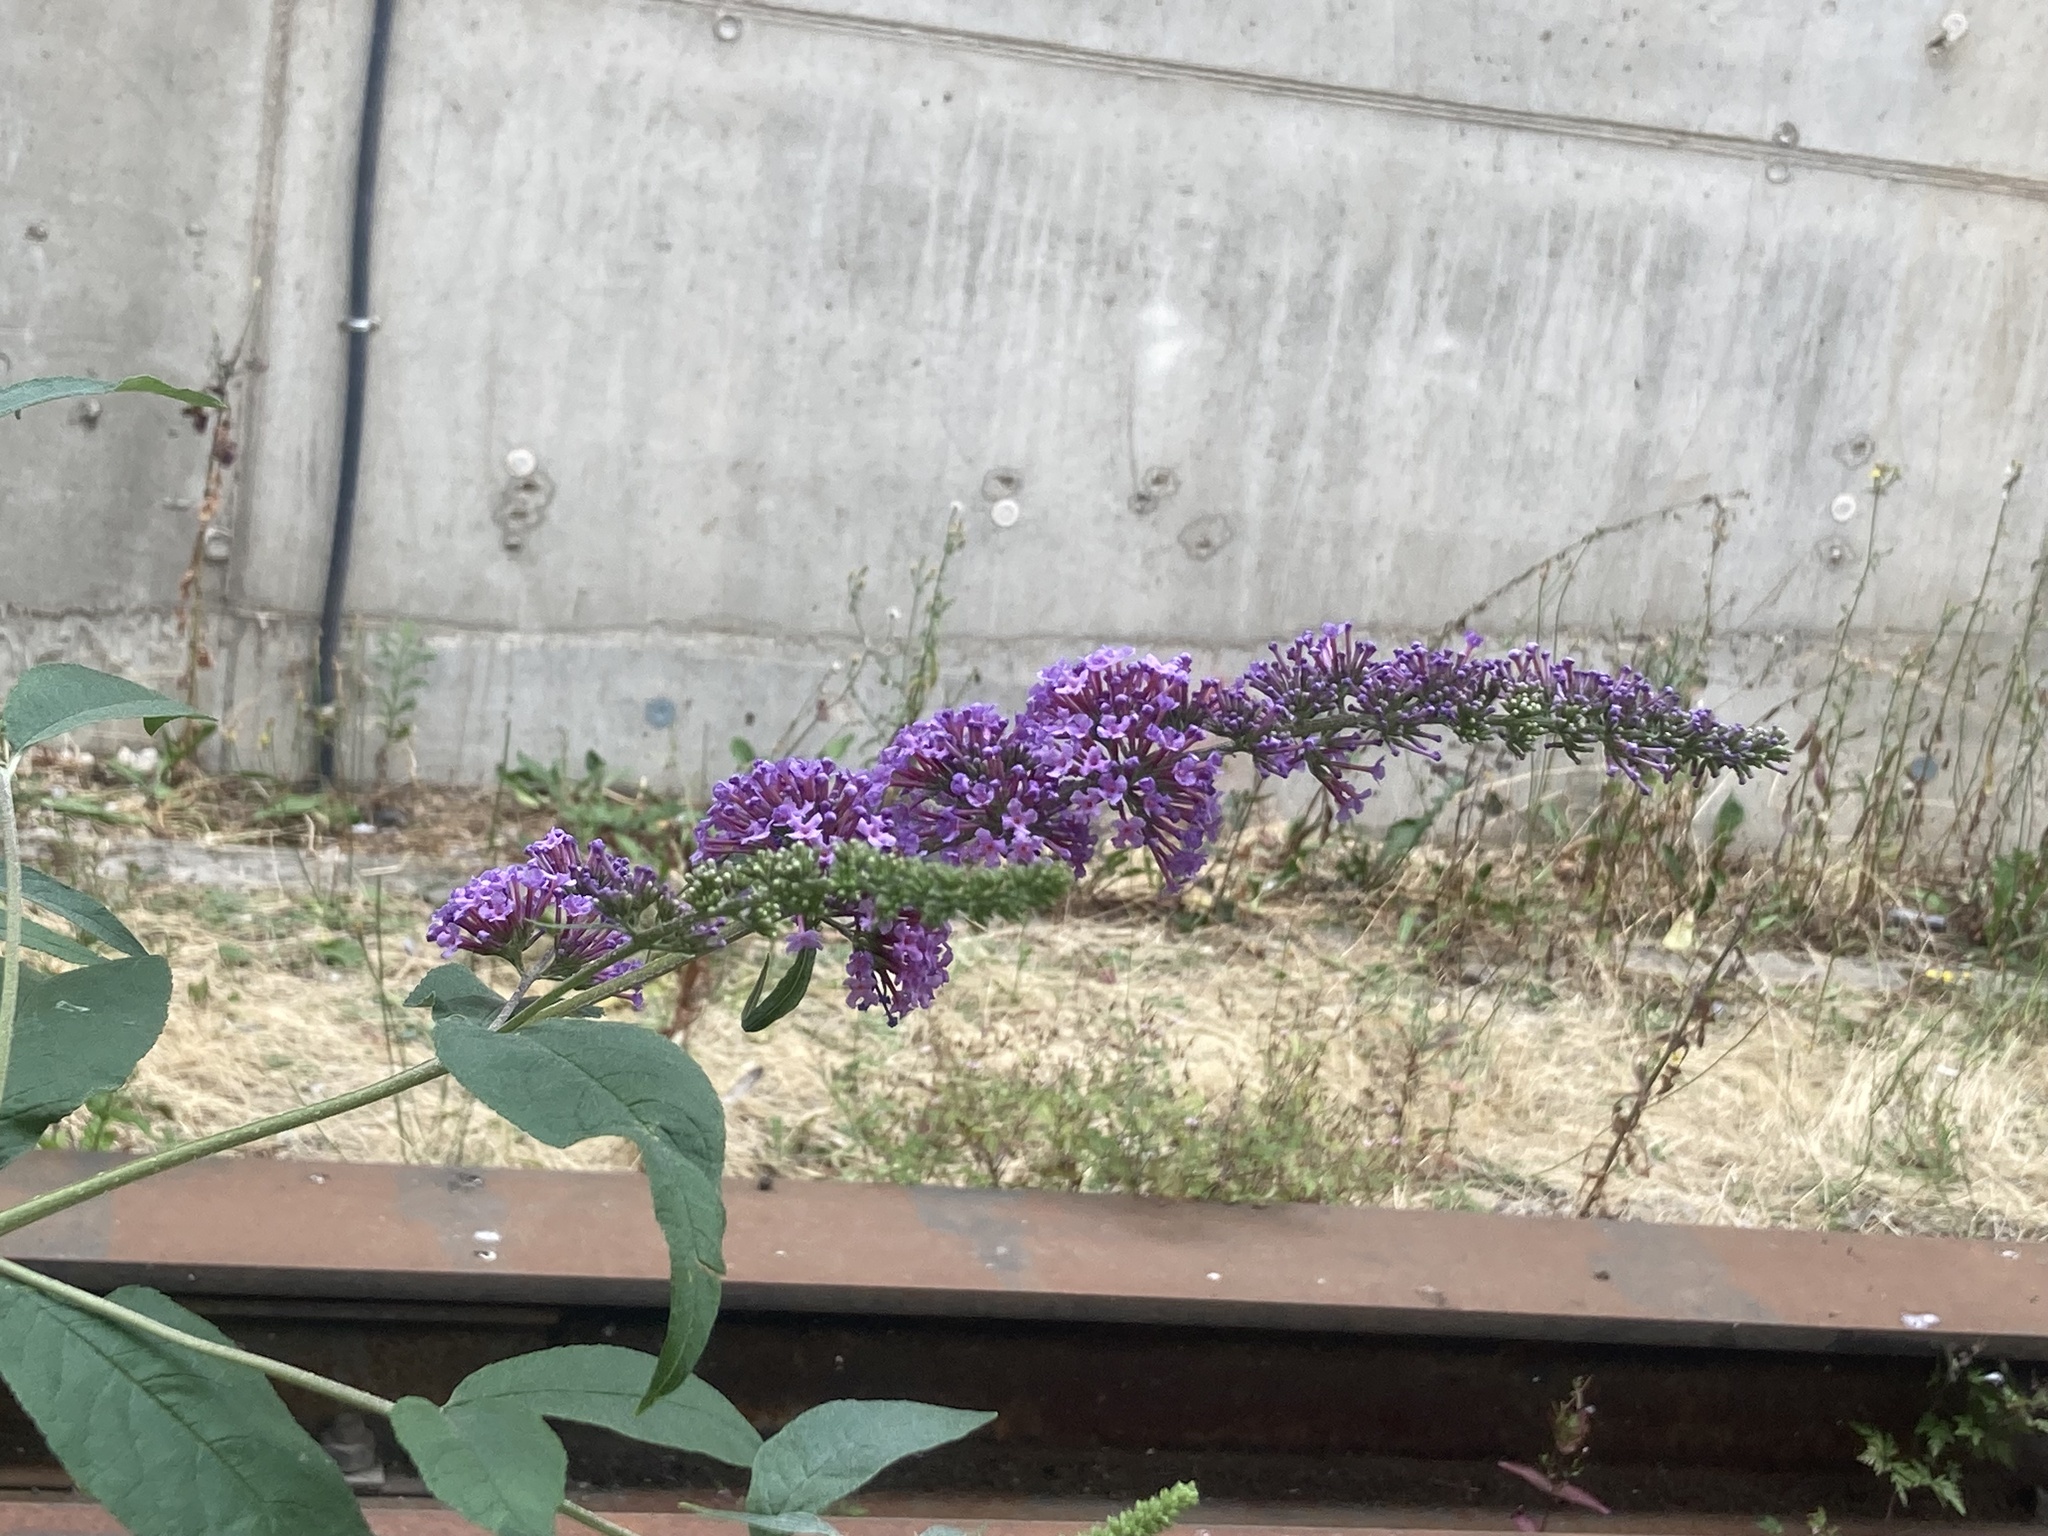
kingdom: Plantae
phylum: Tracheophyta
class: Magnoliopsida
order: Lamiales
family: Scrophulariaceae
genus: Buddleja
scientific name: Buddleja davidii
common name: Butterfly-bush
